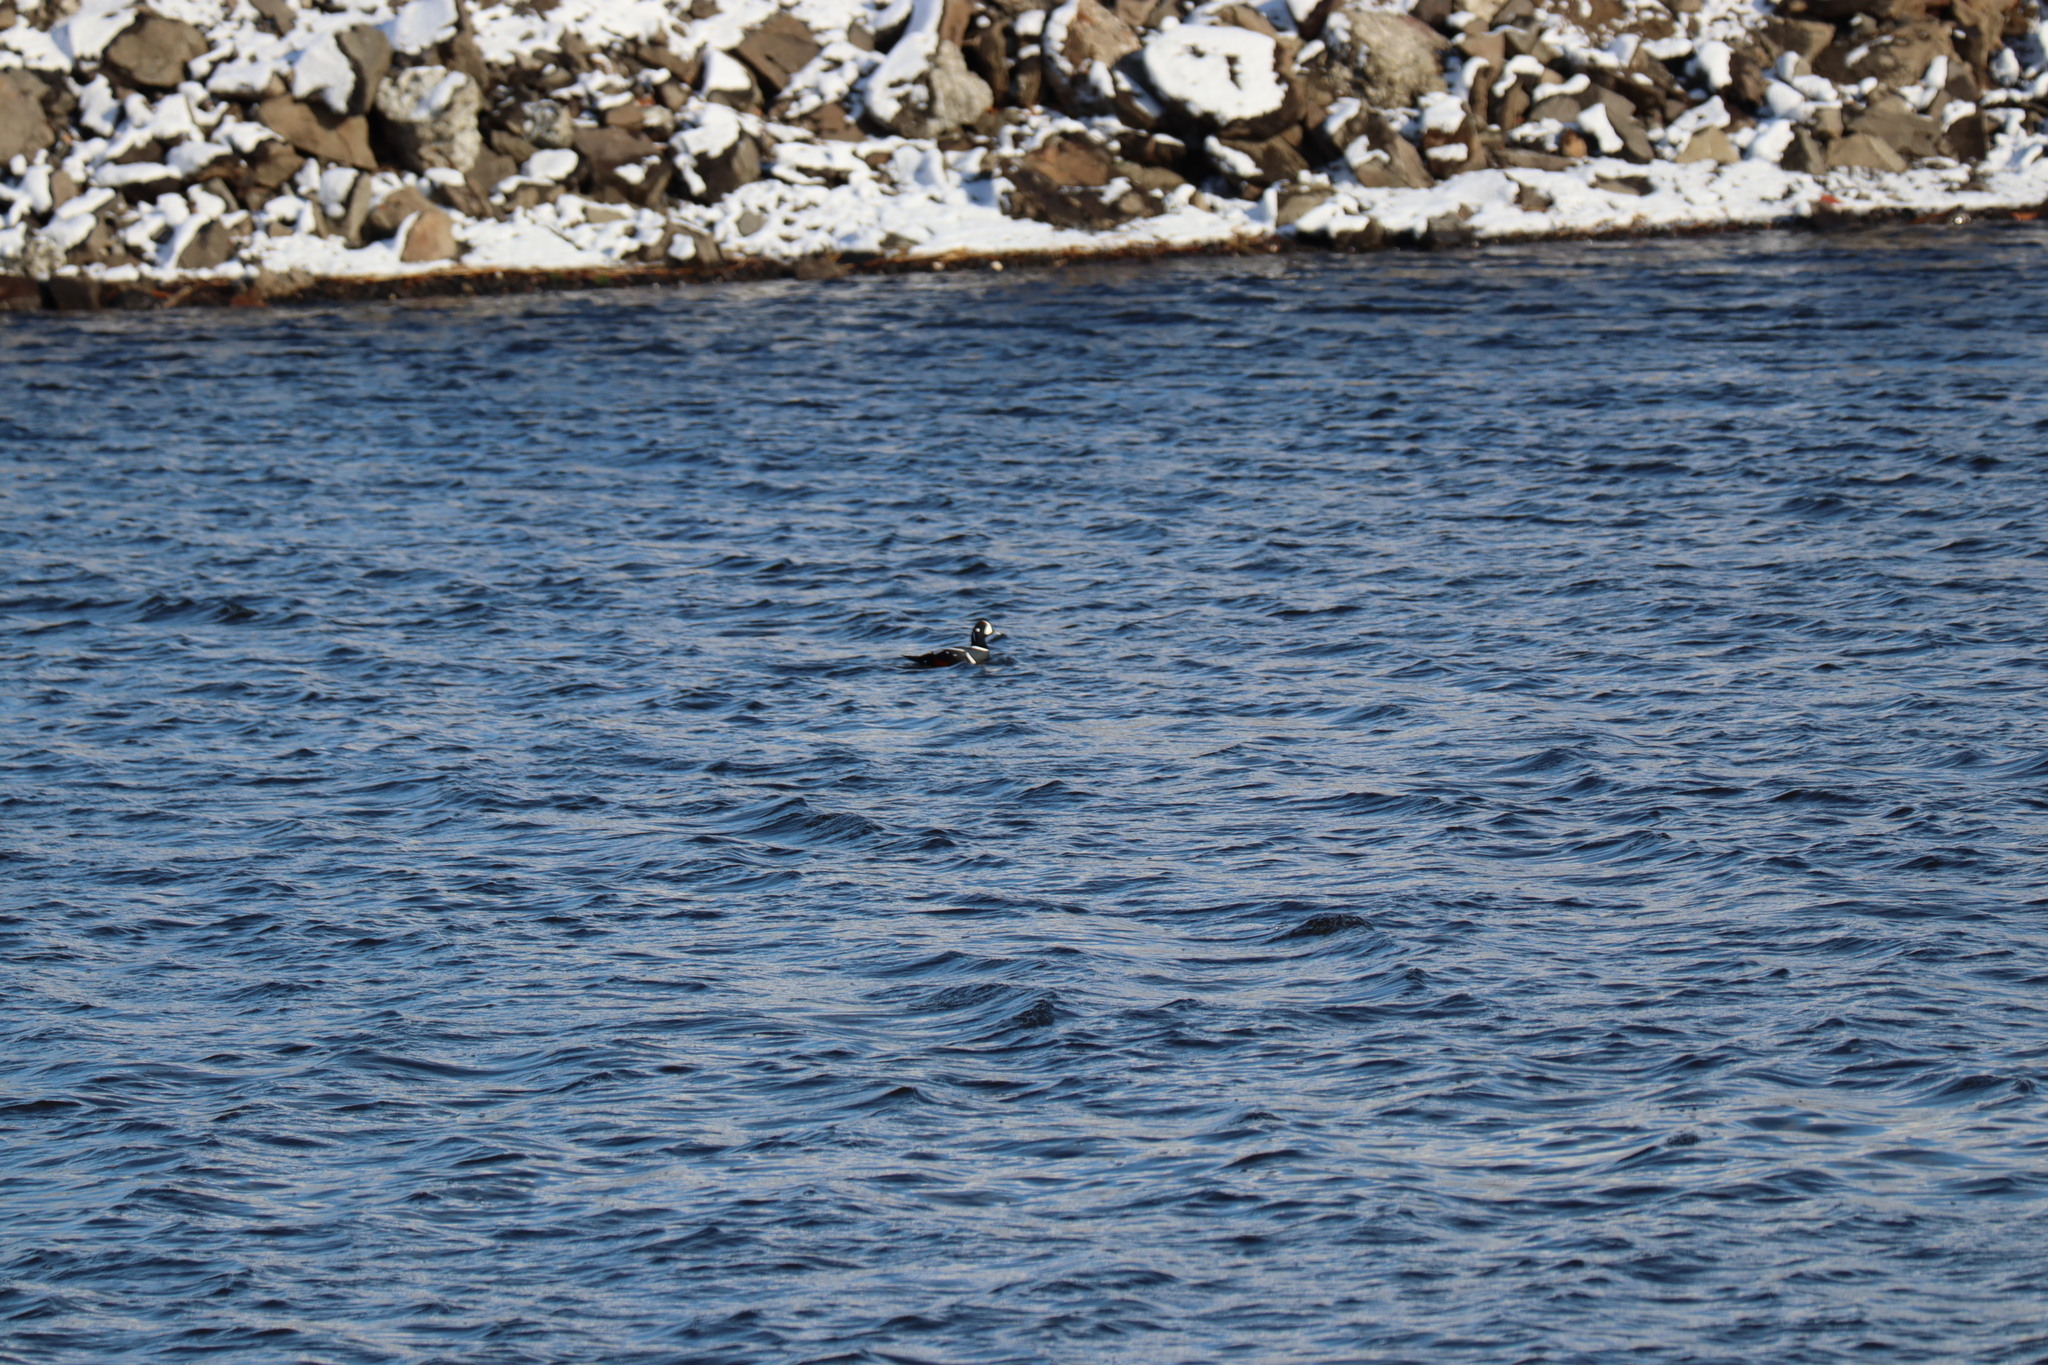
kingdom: Animalia
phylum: Chordata
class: Aves
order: Anseriformes
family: Anatidae
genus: Histrionicus
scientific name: Histrionicus histrionicus
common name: Harlequin duck
